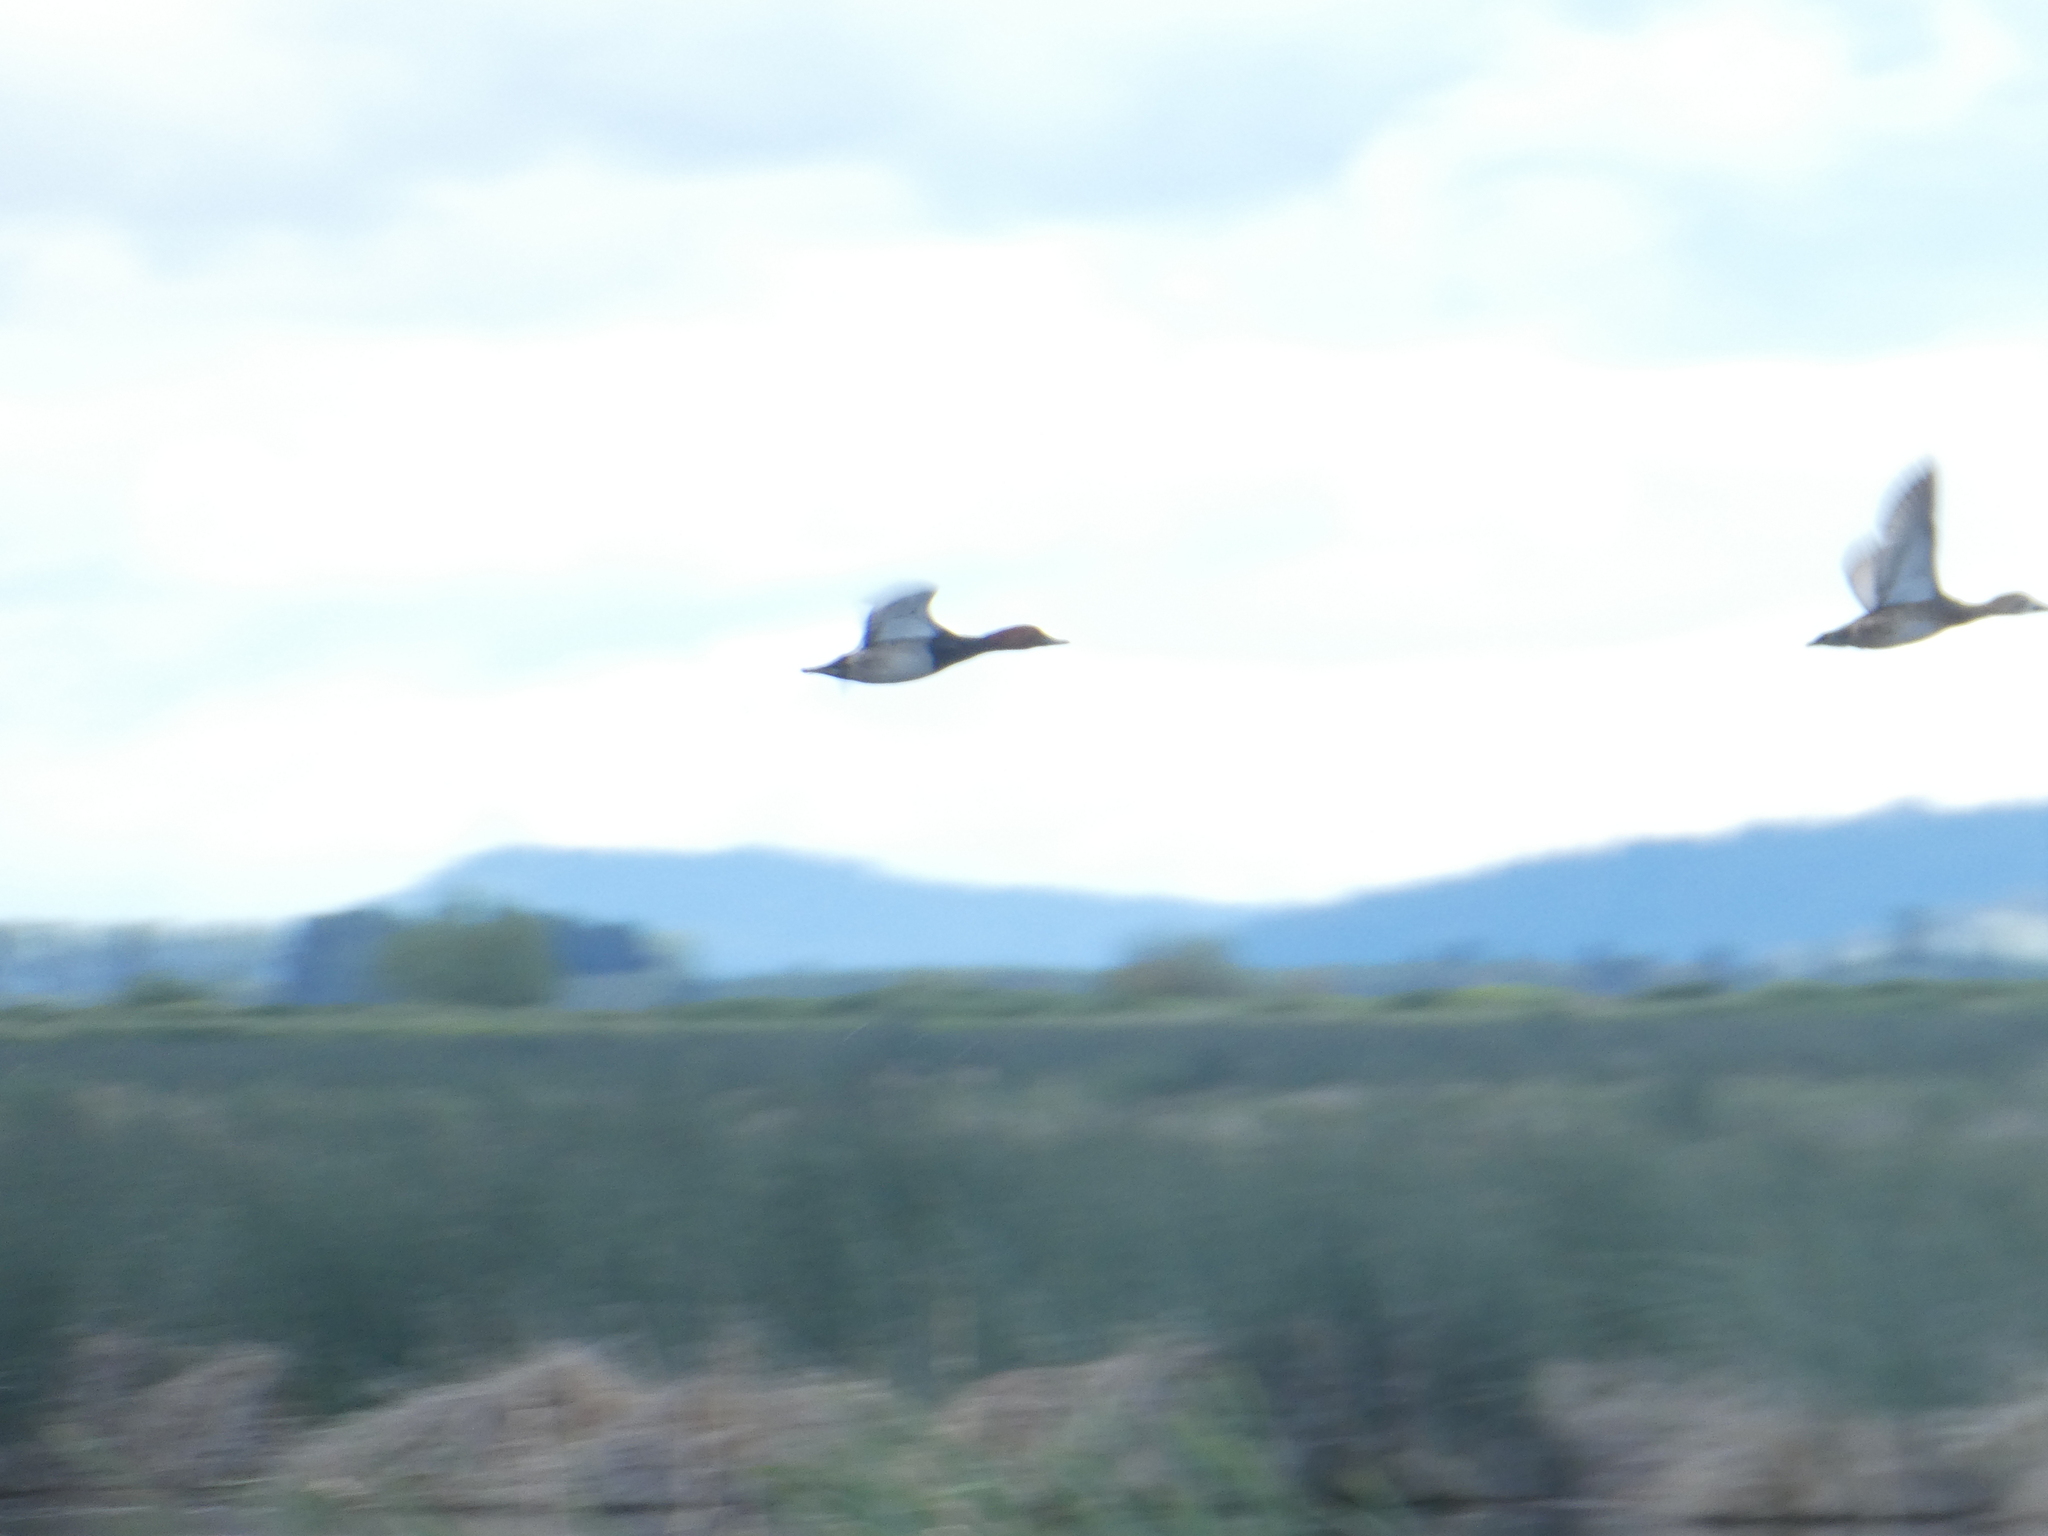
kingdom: Animalia
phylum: Chordata
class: Aves
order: Anseriformes
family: Anatidae
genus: Aythya
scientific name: Aythya americana
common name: Redhead
